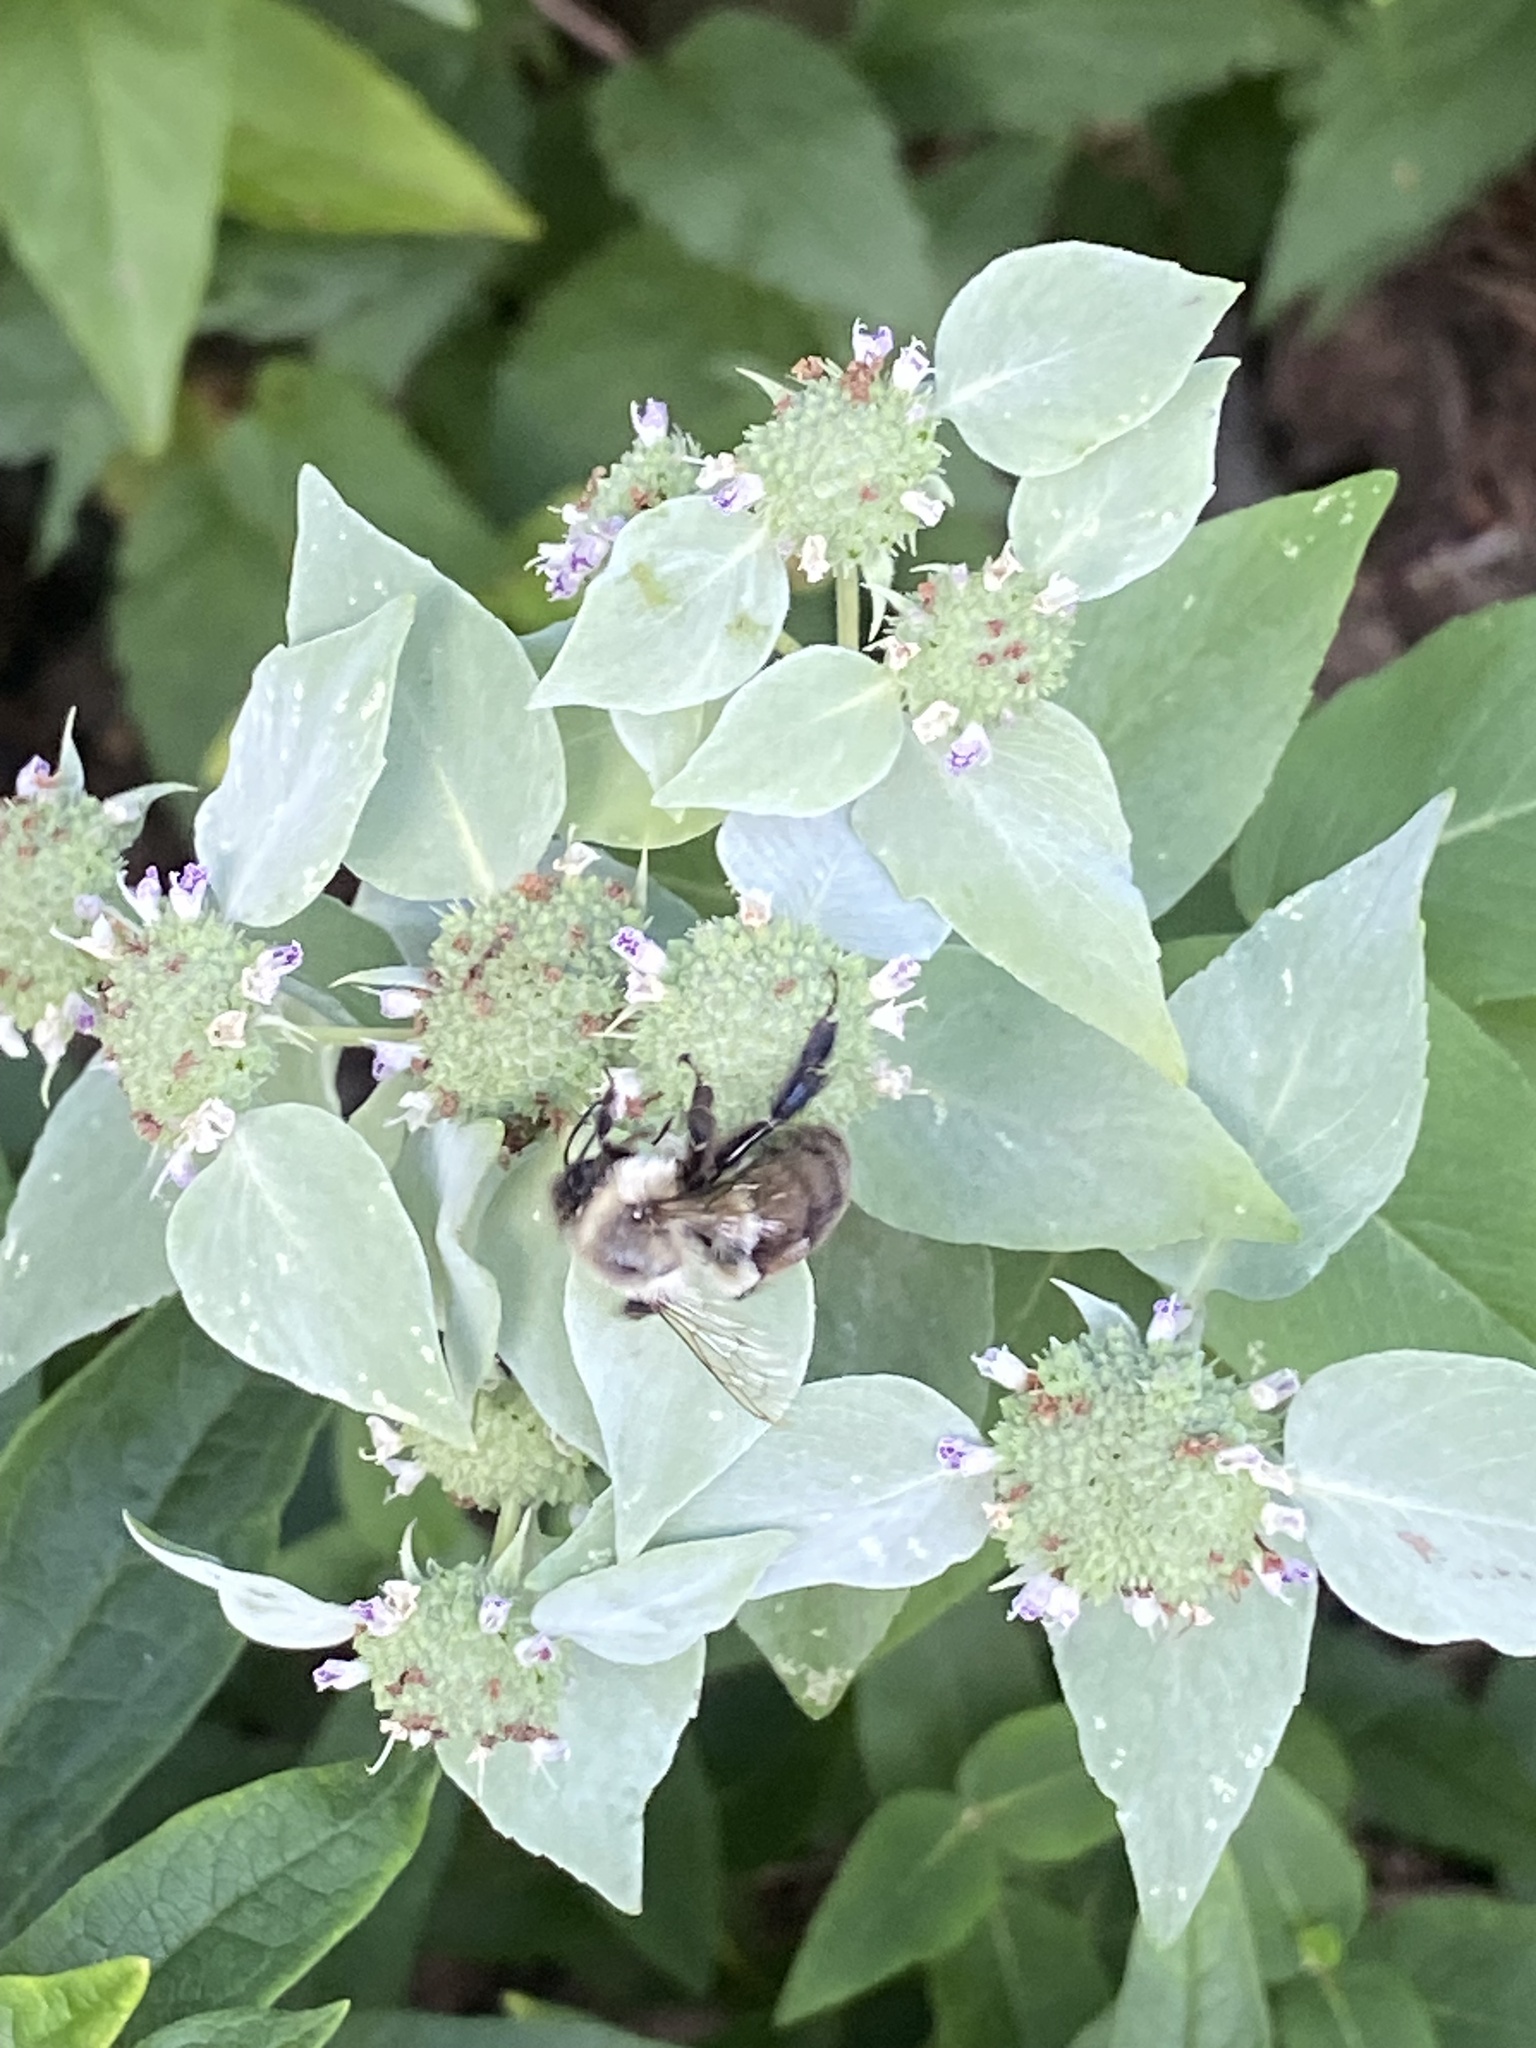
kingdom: Animalia
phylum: Arthropoda
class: Insecta
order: Hymenoptera
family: Apidae
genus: Bombus
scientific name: Bombus impatiens
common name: Common eastern bumble bee
